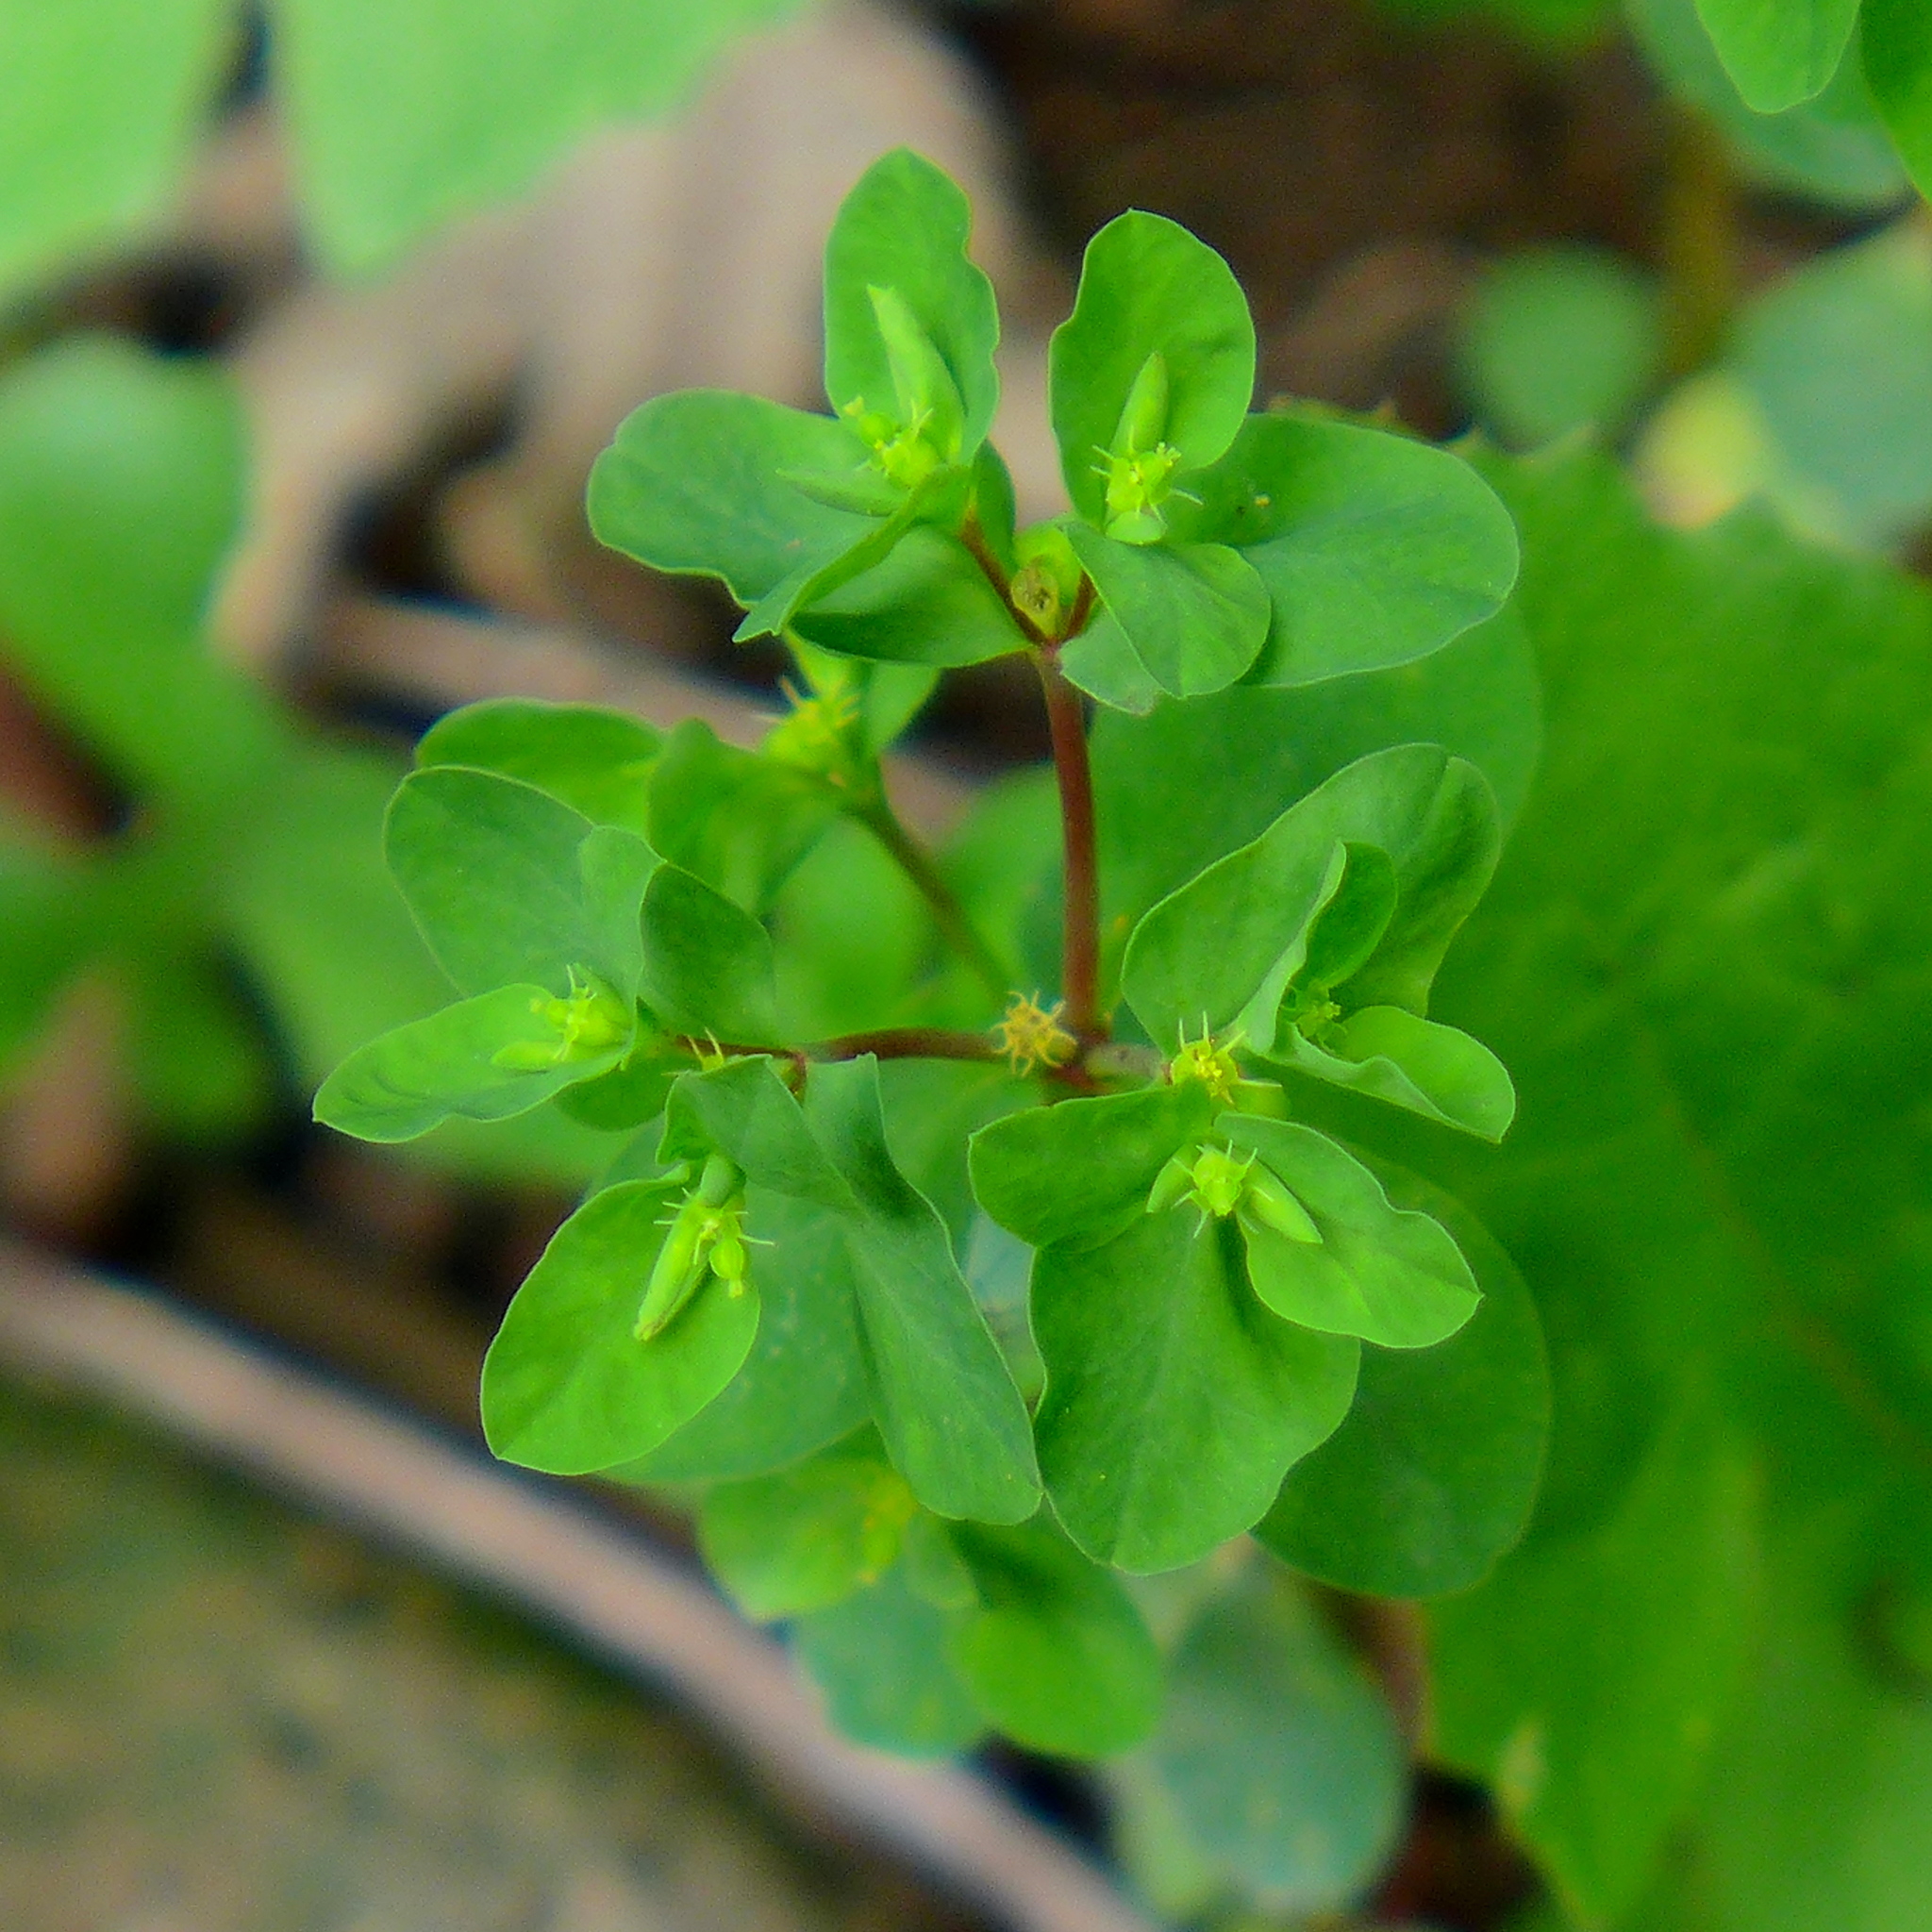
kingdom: Plantae
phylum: Tracheophyta
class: Magnoliopsida
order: Malpighiales
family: Euphorbiaceae
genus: Euphorbia
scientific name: Euphorbia peplus
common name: Petty spurge
